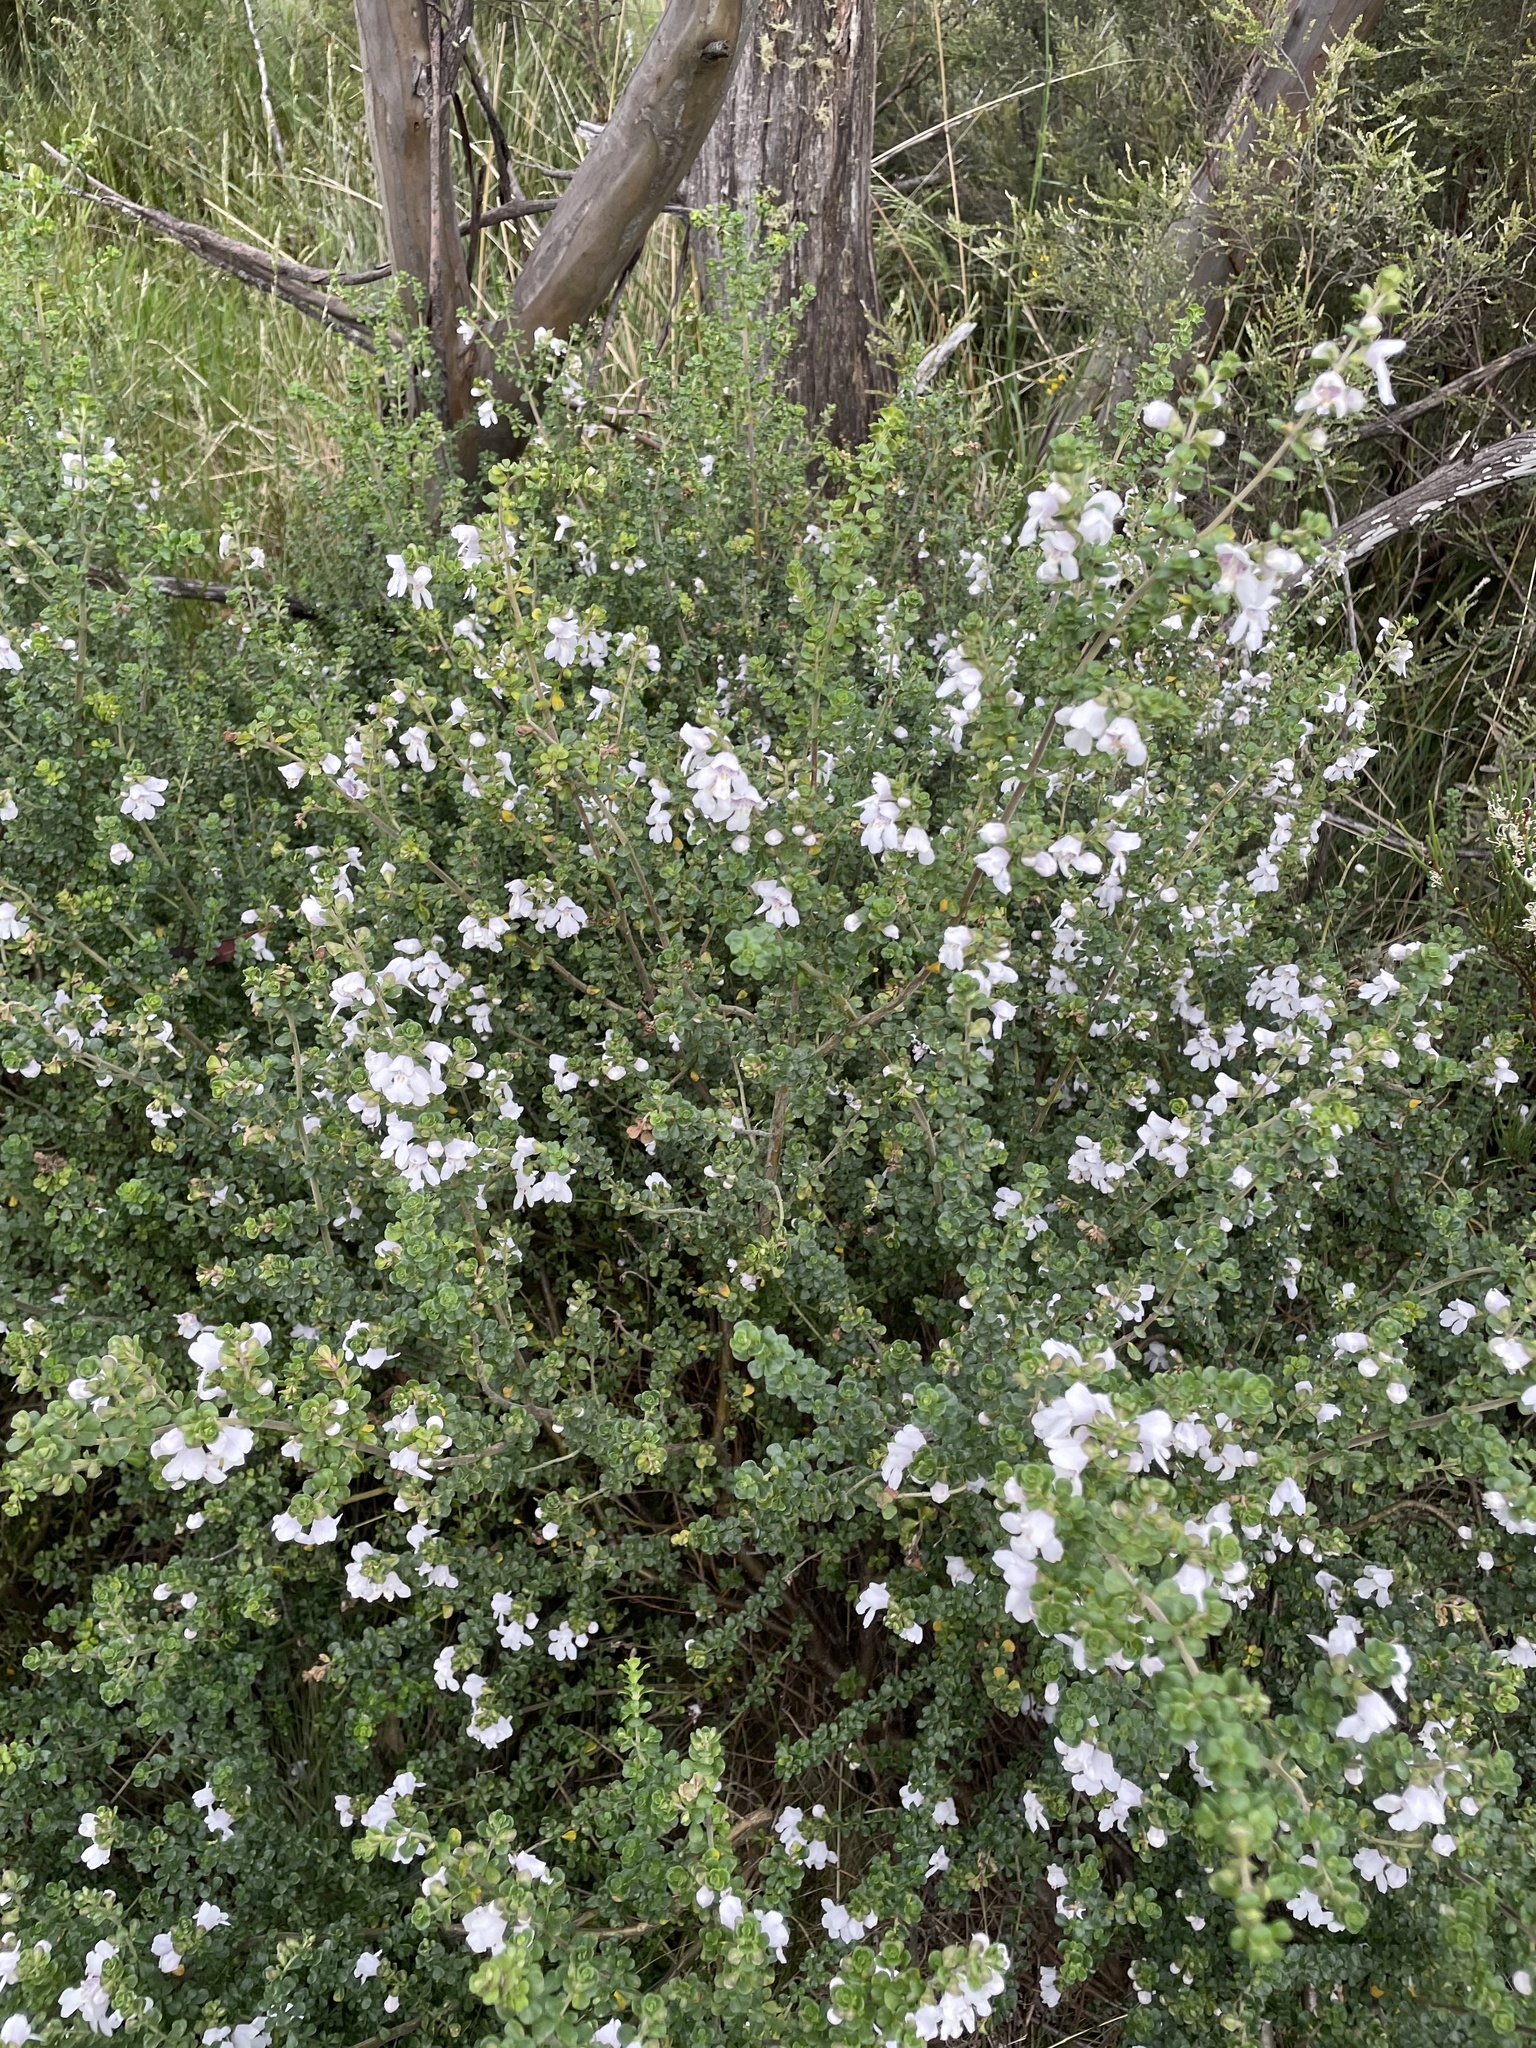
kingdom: Plantae
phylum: Tracheophyta
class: Magnoliopsida
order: Lamiales
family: Lamiaceae
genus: Prostanthera
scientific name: Prostanthera cuneata
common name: Alpine mintbush
